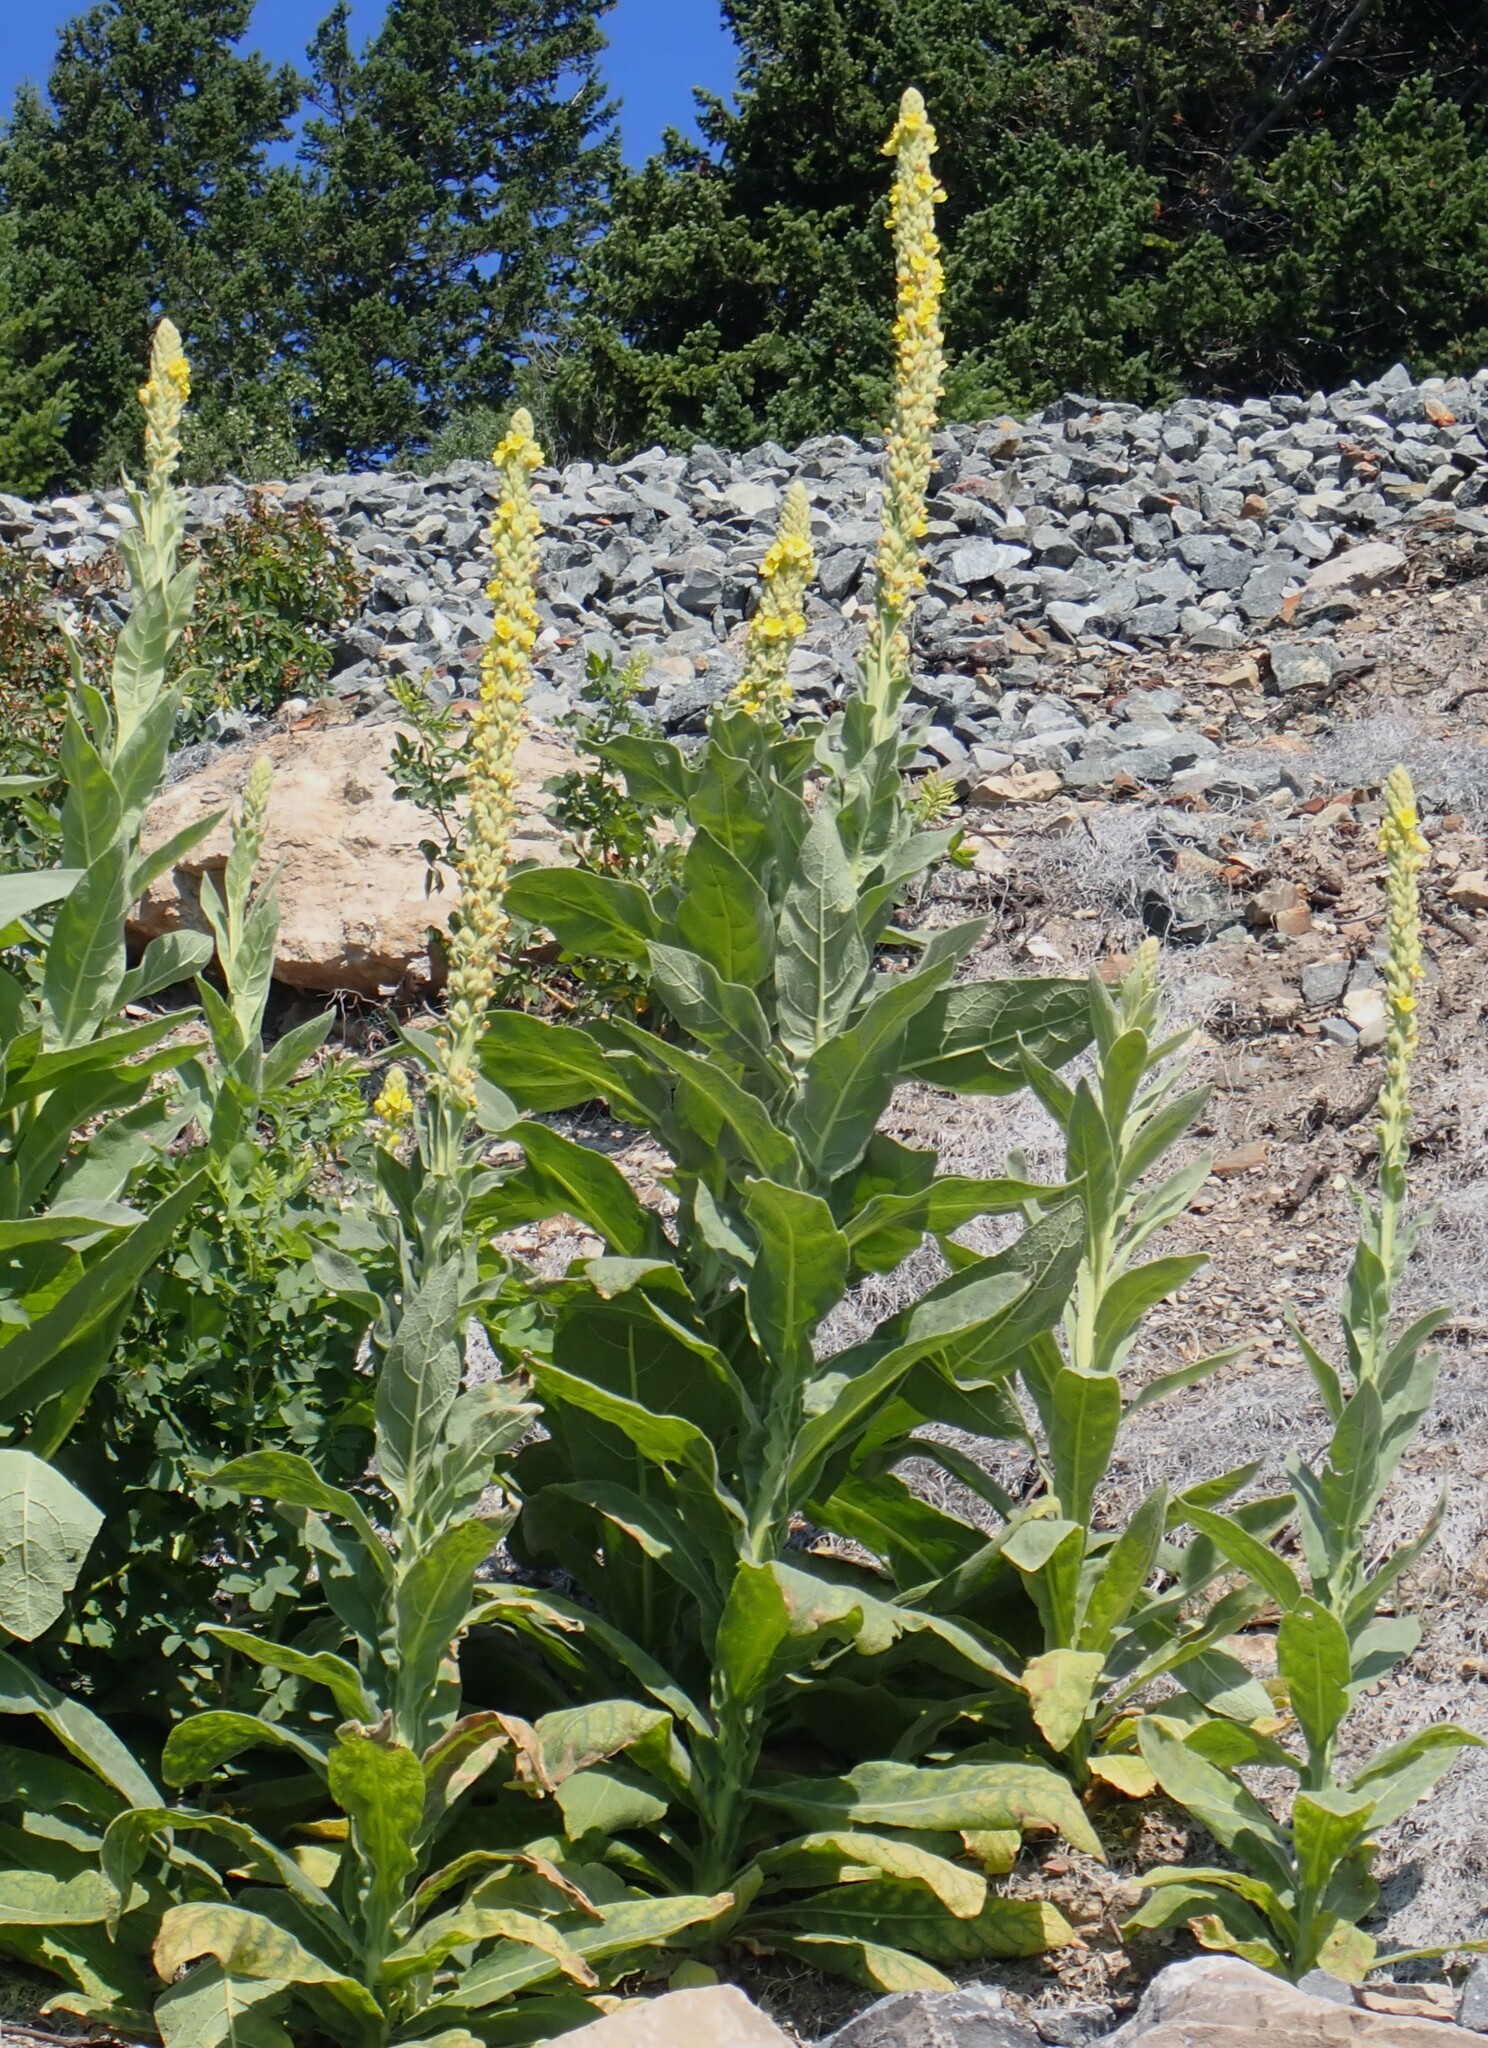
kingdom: Plantae
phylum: Tracheophyta
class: Magnoliopsida
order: Lamiales
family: Scrophulariaceae
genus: Verbascum
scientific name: Verbascum thapsus
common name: Common mullein
